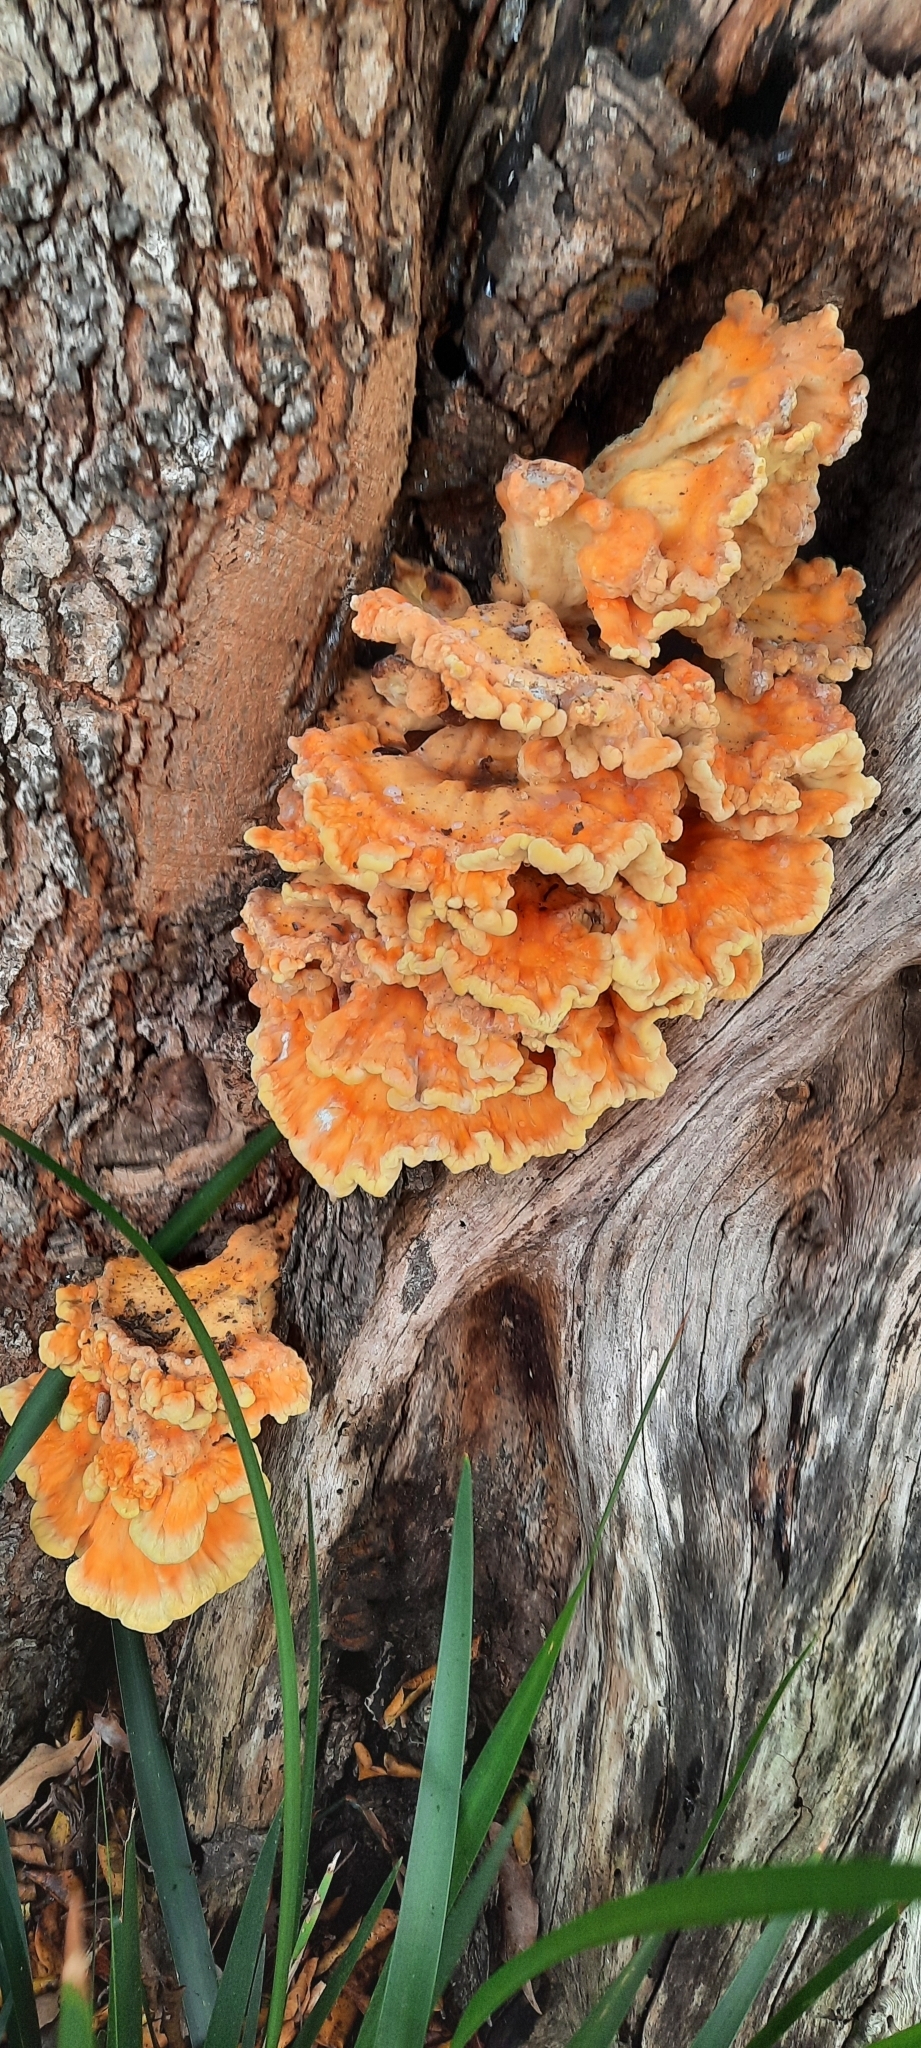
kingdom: Fungi
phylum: Basidiomycota
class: Agaricomycetes
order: Polyporales
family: Laetiporaceae
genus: Laetiporus
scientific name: Laetiporus sulphureus
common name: Chicken of the woods
